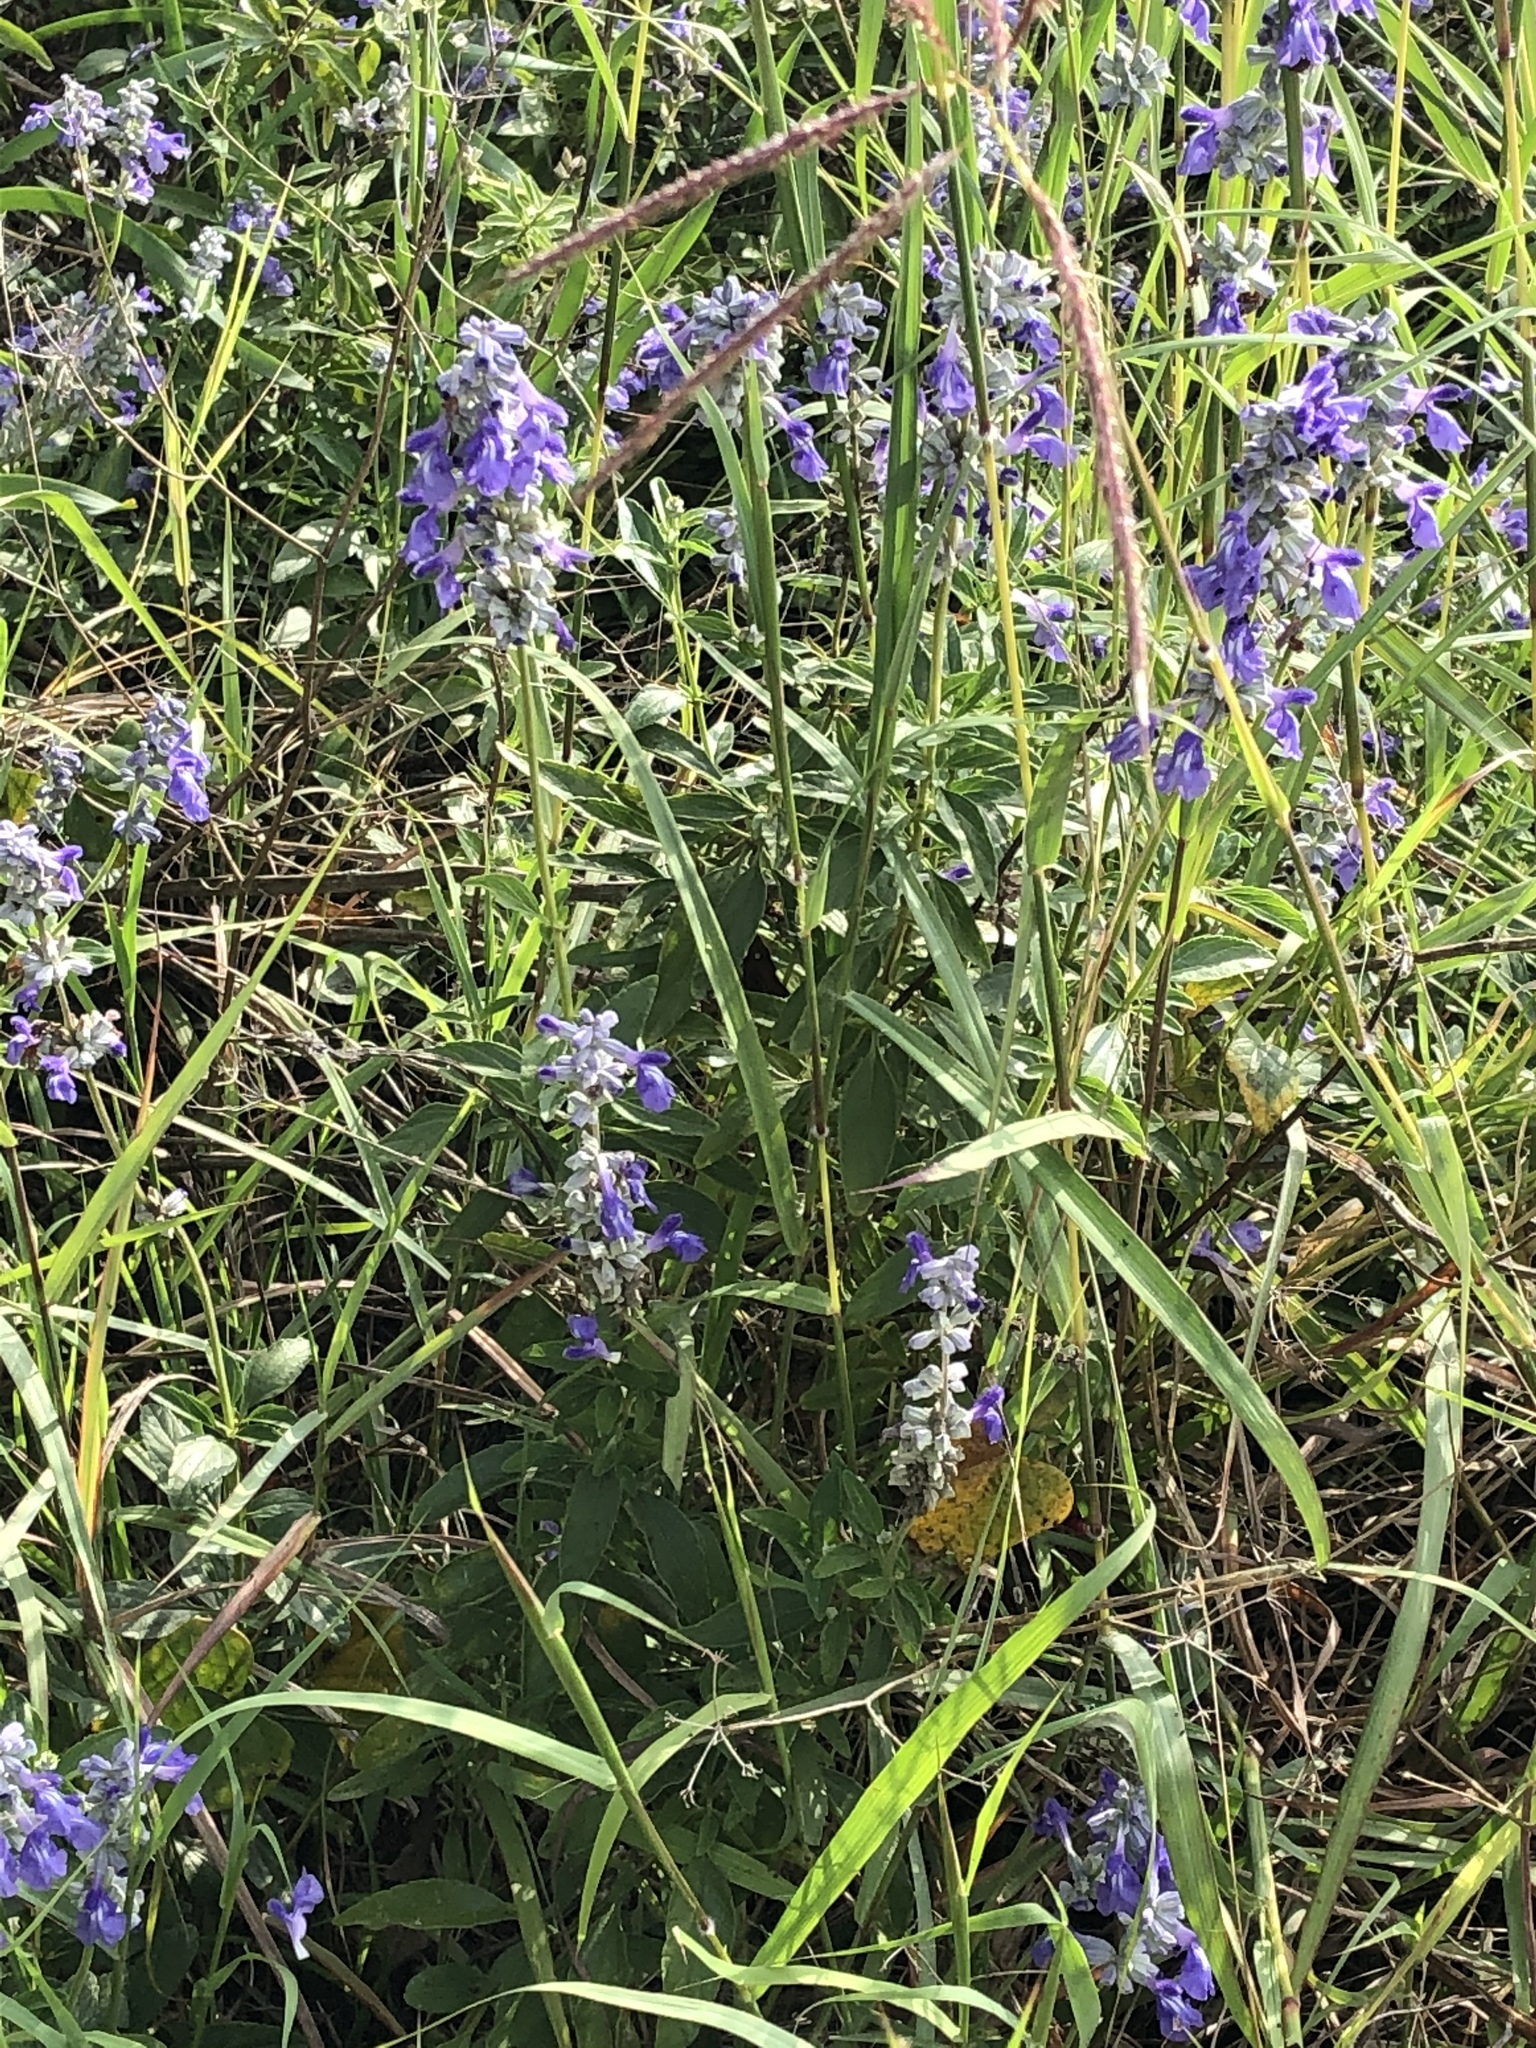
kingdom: Plantae
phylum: Tracheophyta
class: Magnoliopsida
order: Lamiales
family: Lamiaceae
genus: Salvia
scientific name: Salvia farinacea
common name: Mealy sage
